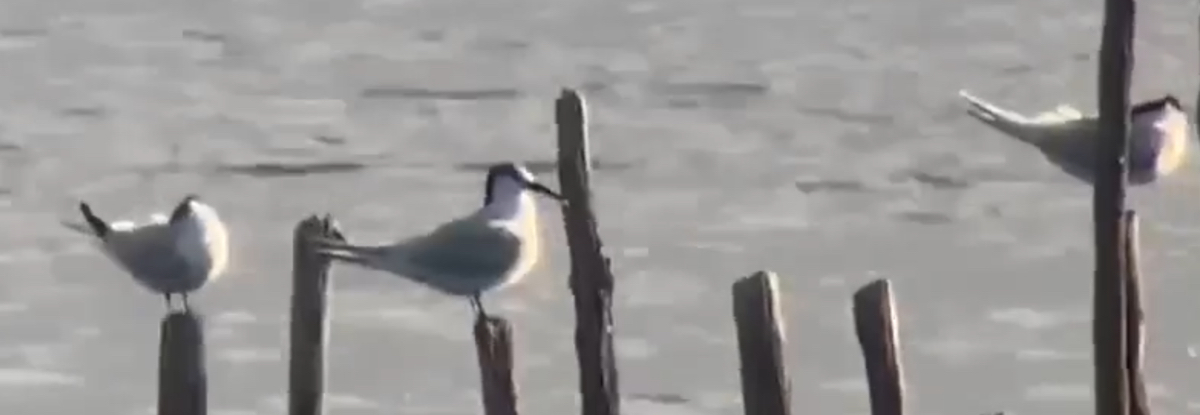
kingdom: Animalia
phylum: Chordata
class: Aves
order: Charadriiformes
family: Laridae
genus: Thalasseus
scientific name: Thalasseus sandvicensis
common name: Sandwich tern
